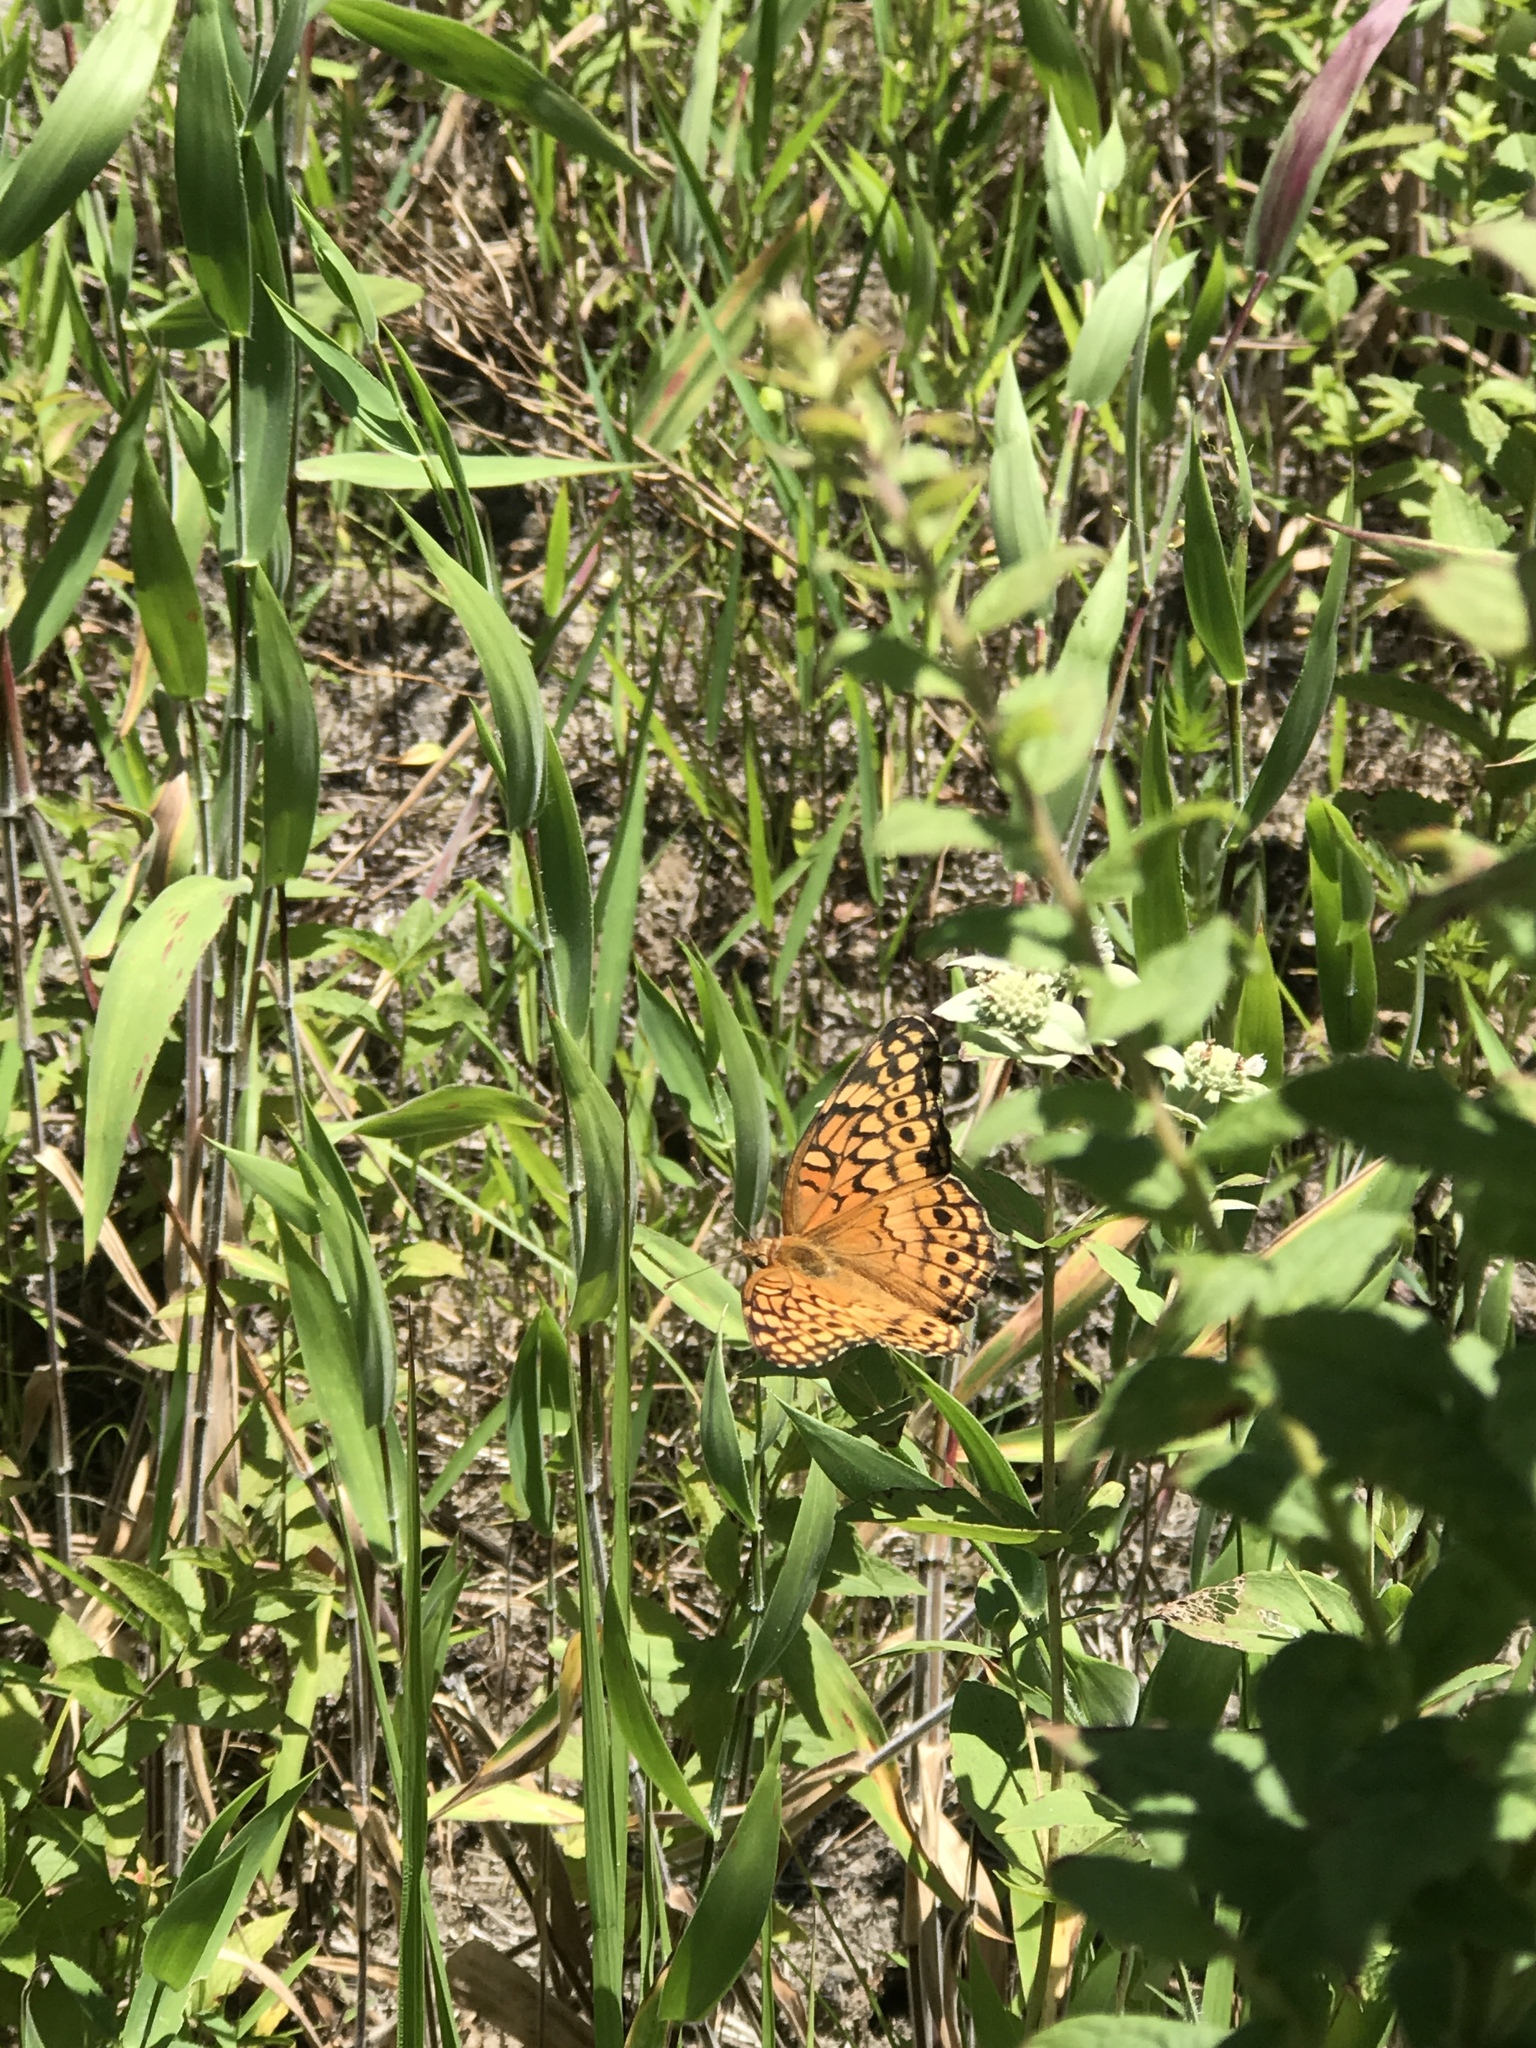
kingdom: Animalia
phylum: Arthropoda
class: Insecta
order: Lepidoptera
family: Nymphalidae
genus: Euptoieta
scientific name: Euptoieta claudia
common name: Variegated fritillary
